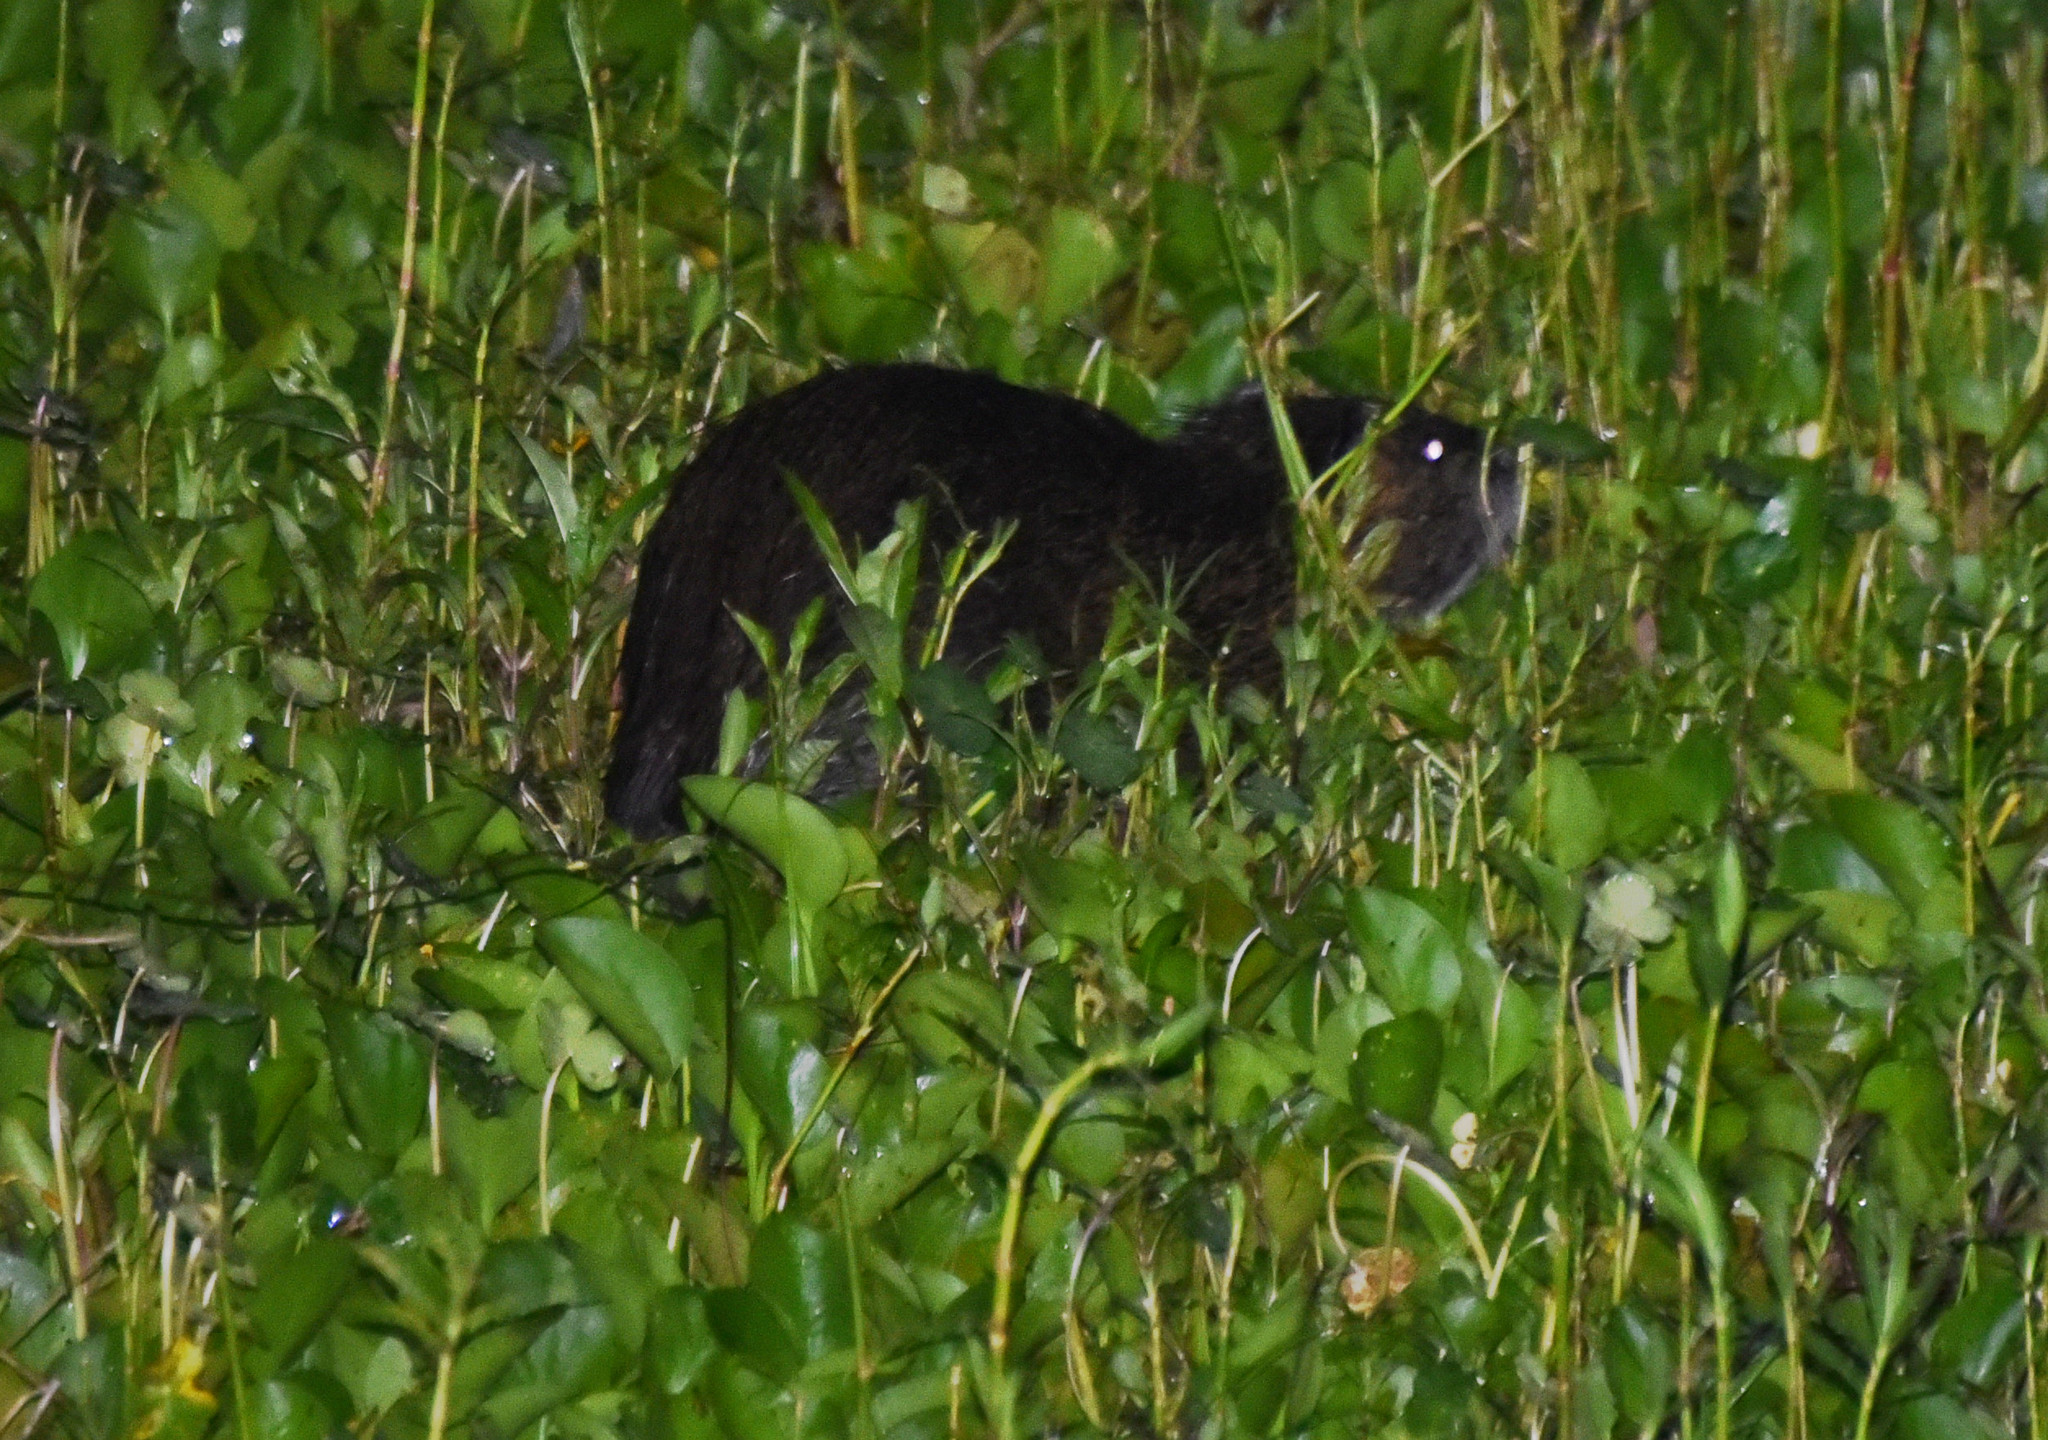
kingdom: Animalia
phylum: Chordata
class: Mammalia
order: Rodentia
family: Myocastoridae
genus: Myocastor
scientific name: Myocastor coypus
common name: Coypu
